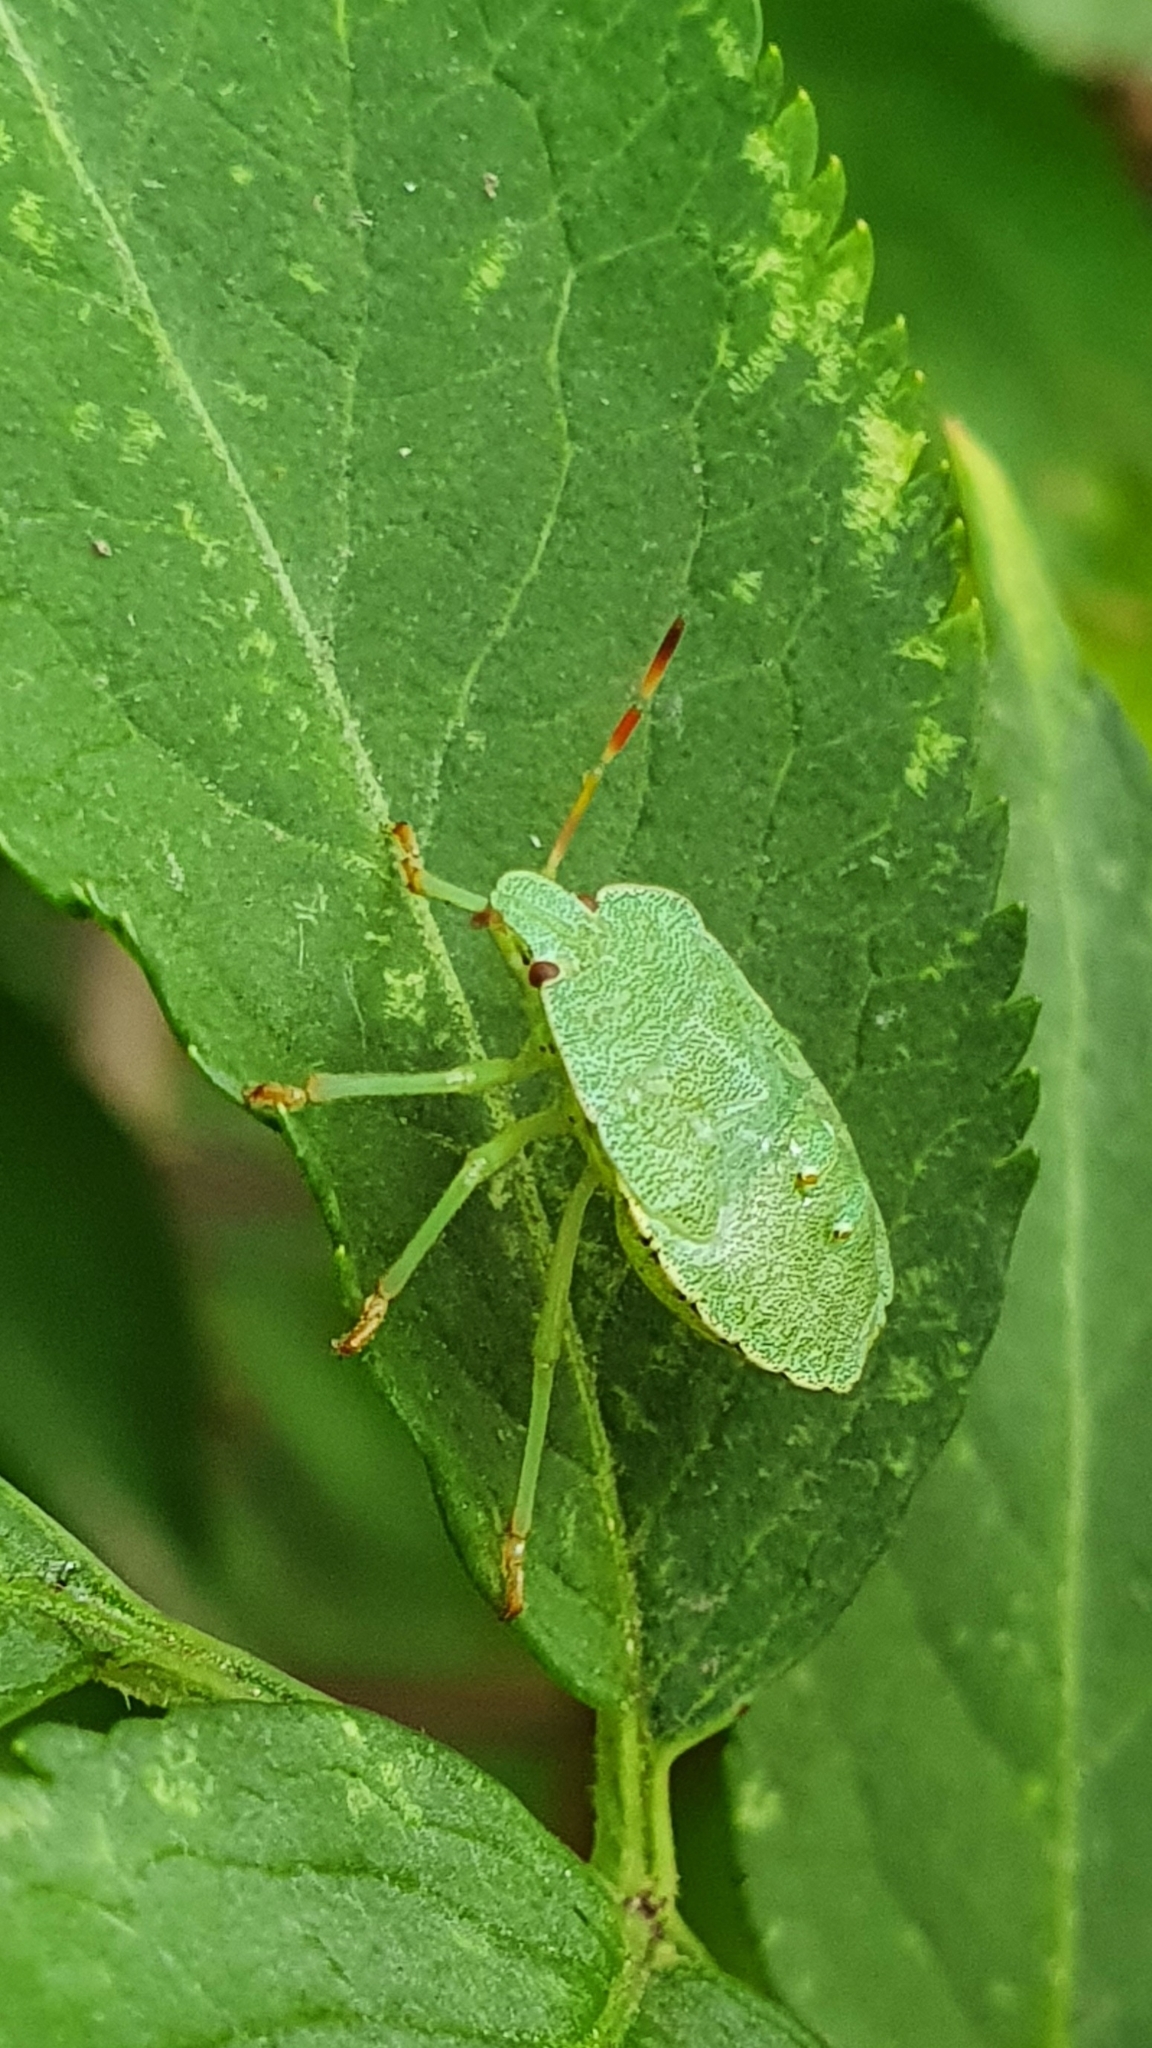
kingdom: Animalia
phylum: Arthropoda
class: Insecta
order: Hemiptera
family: Pentatomidae
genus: Palomena
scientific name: Palomena prasina
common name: Green shieldbug
